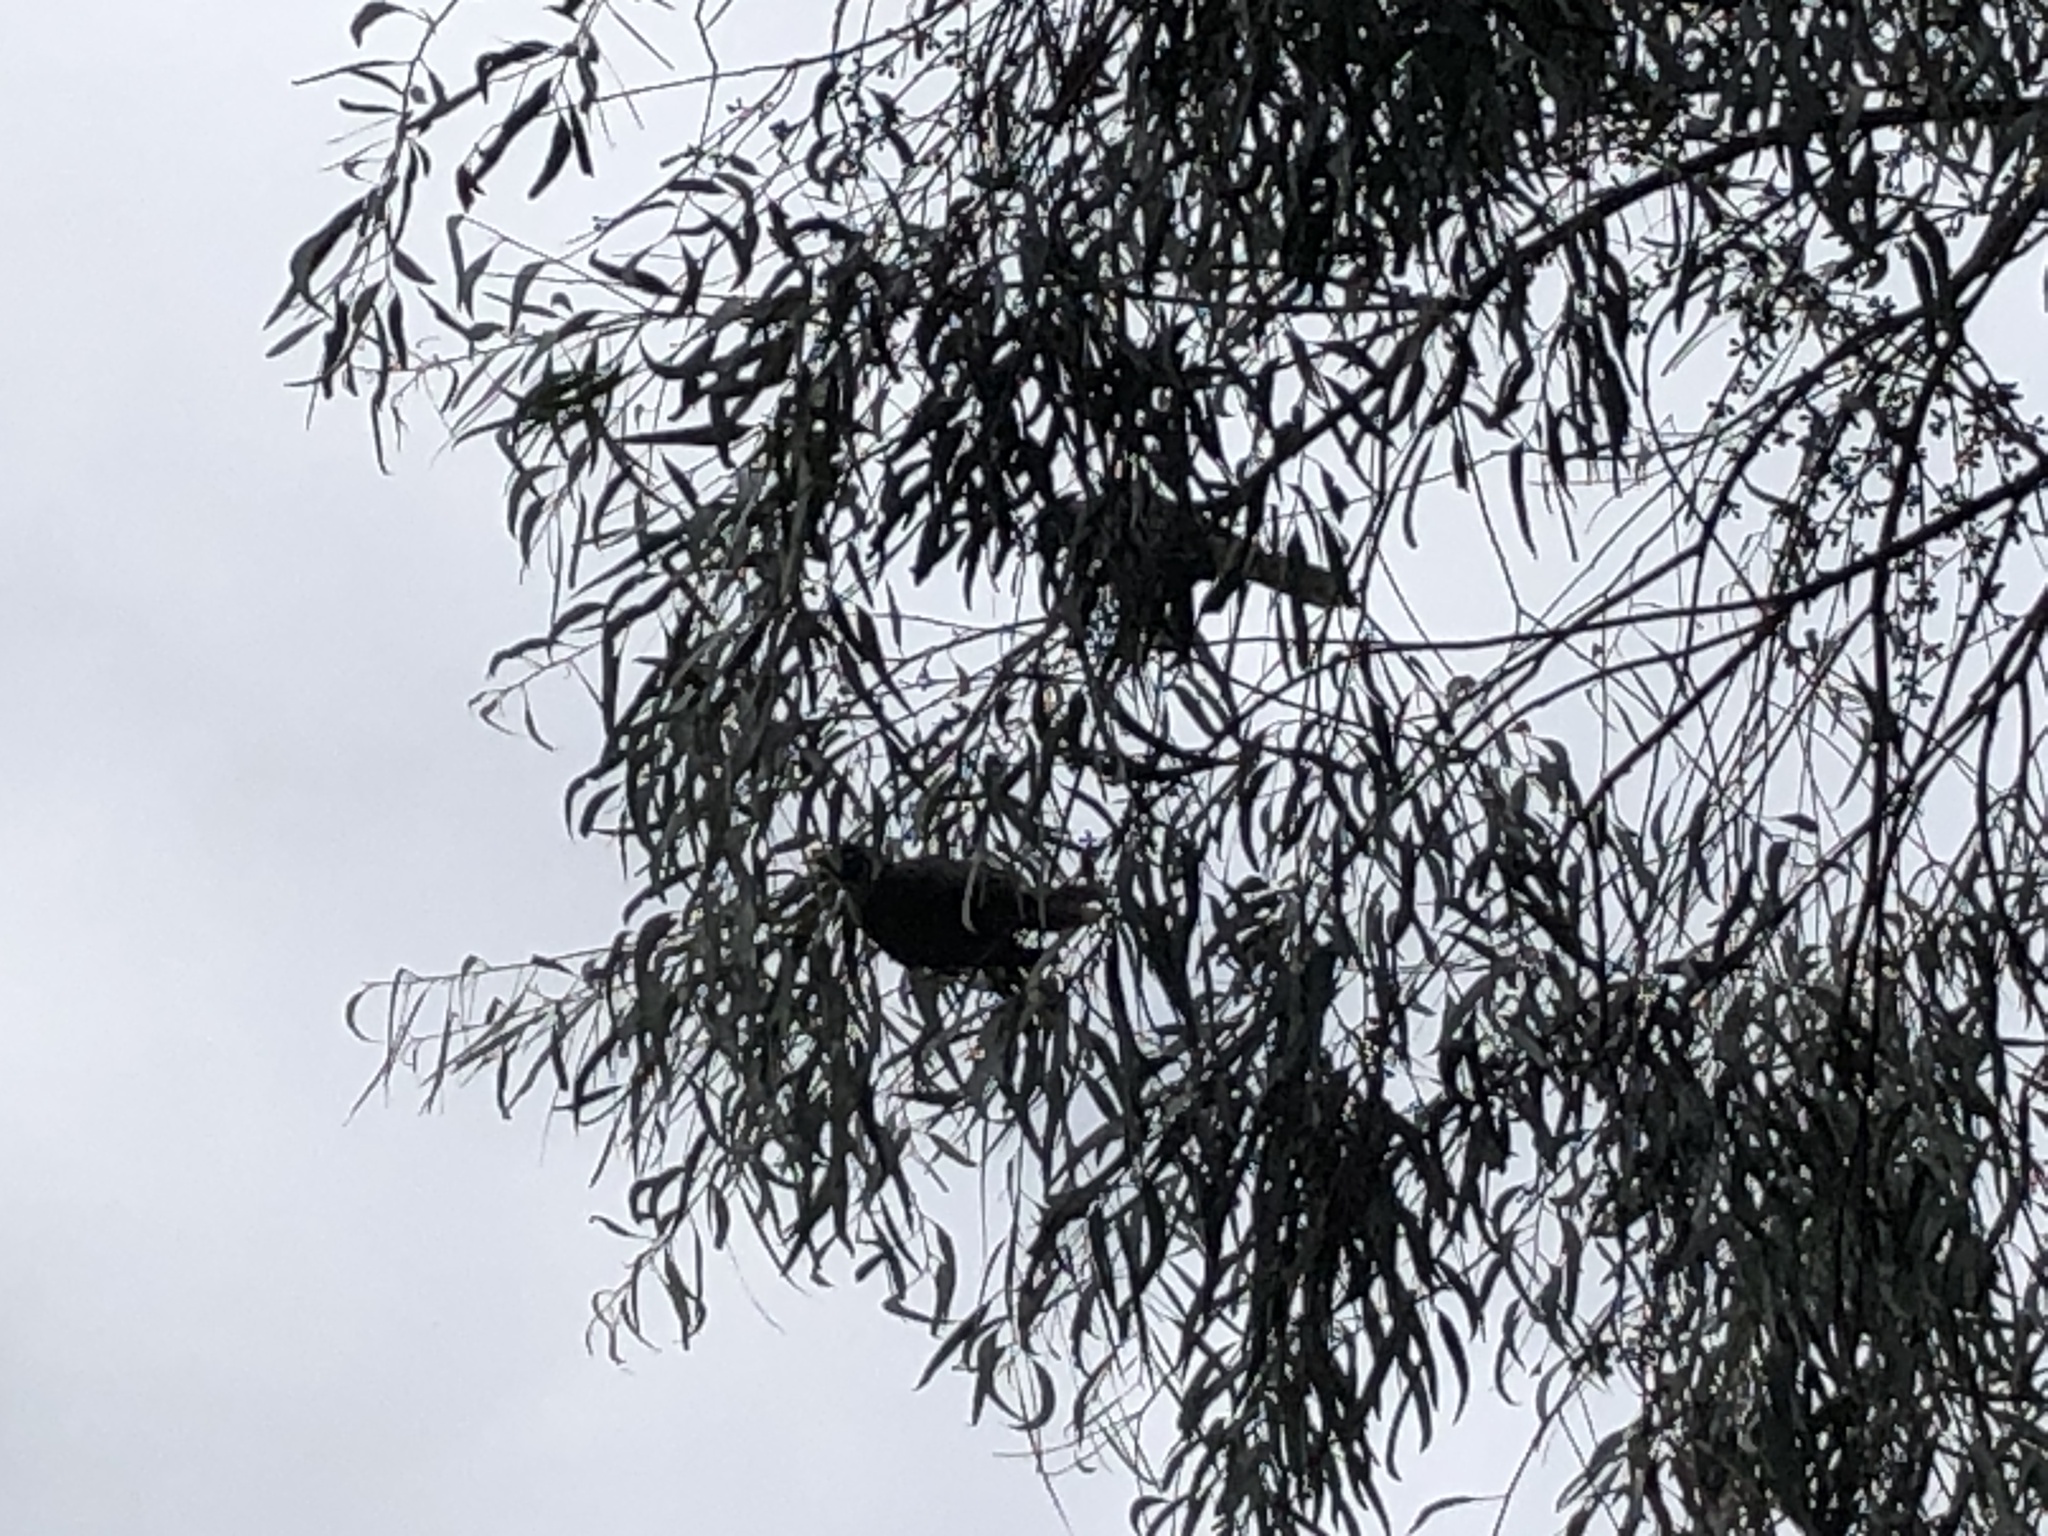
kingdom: Animalia
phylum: Chordata
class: Aves
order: Passeriformes
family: Meliphagidae
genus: Manorina
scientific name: Manorina melanocephala
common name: Noisy miner
